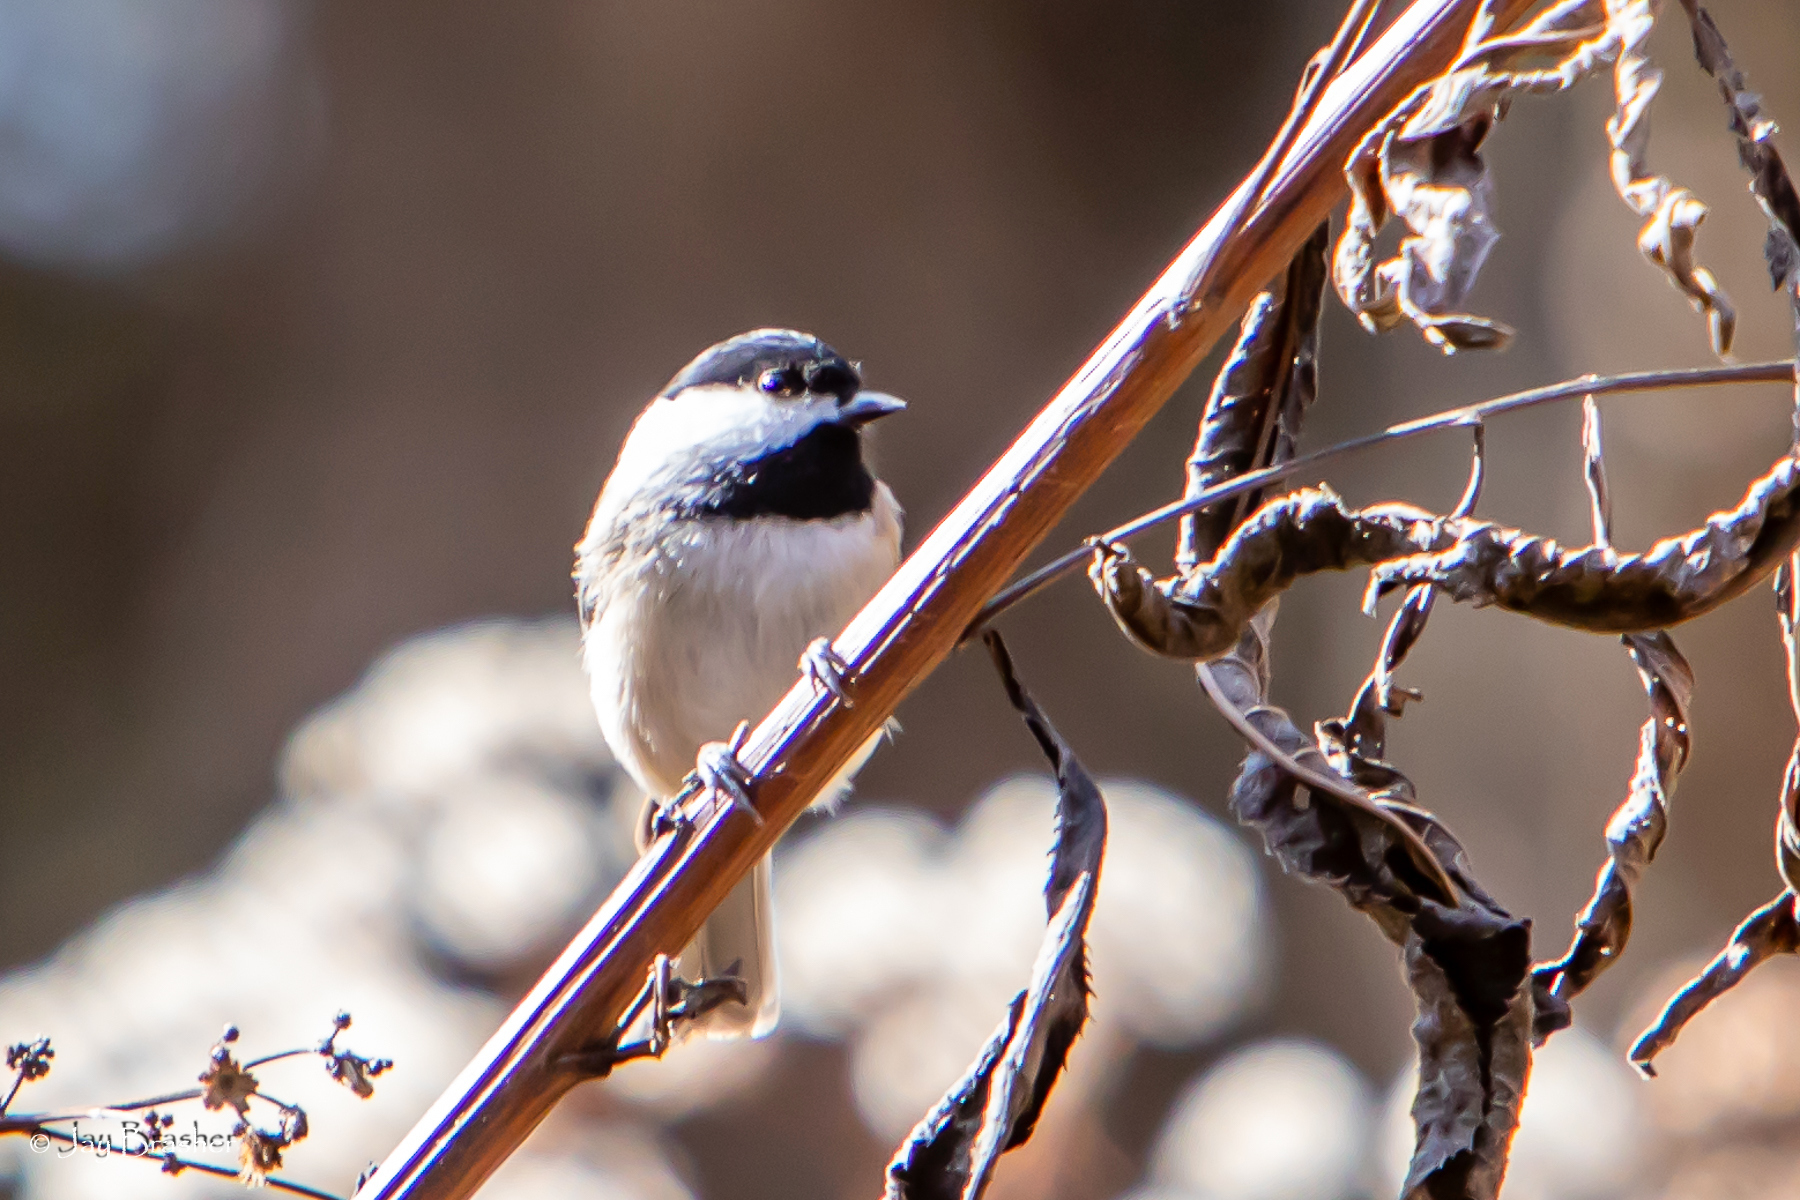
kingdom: Animalia
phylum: Chordata
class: Aves
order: Passeriformes
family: Paridae
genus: Poecile
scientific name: Poecile carolinensis
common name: Carolina chickadee
